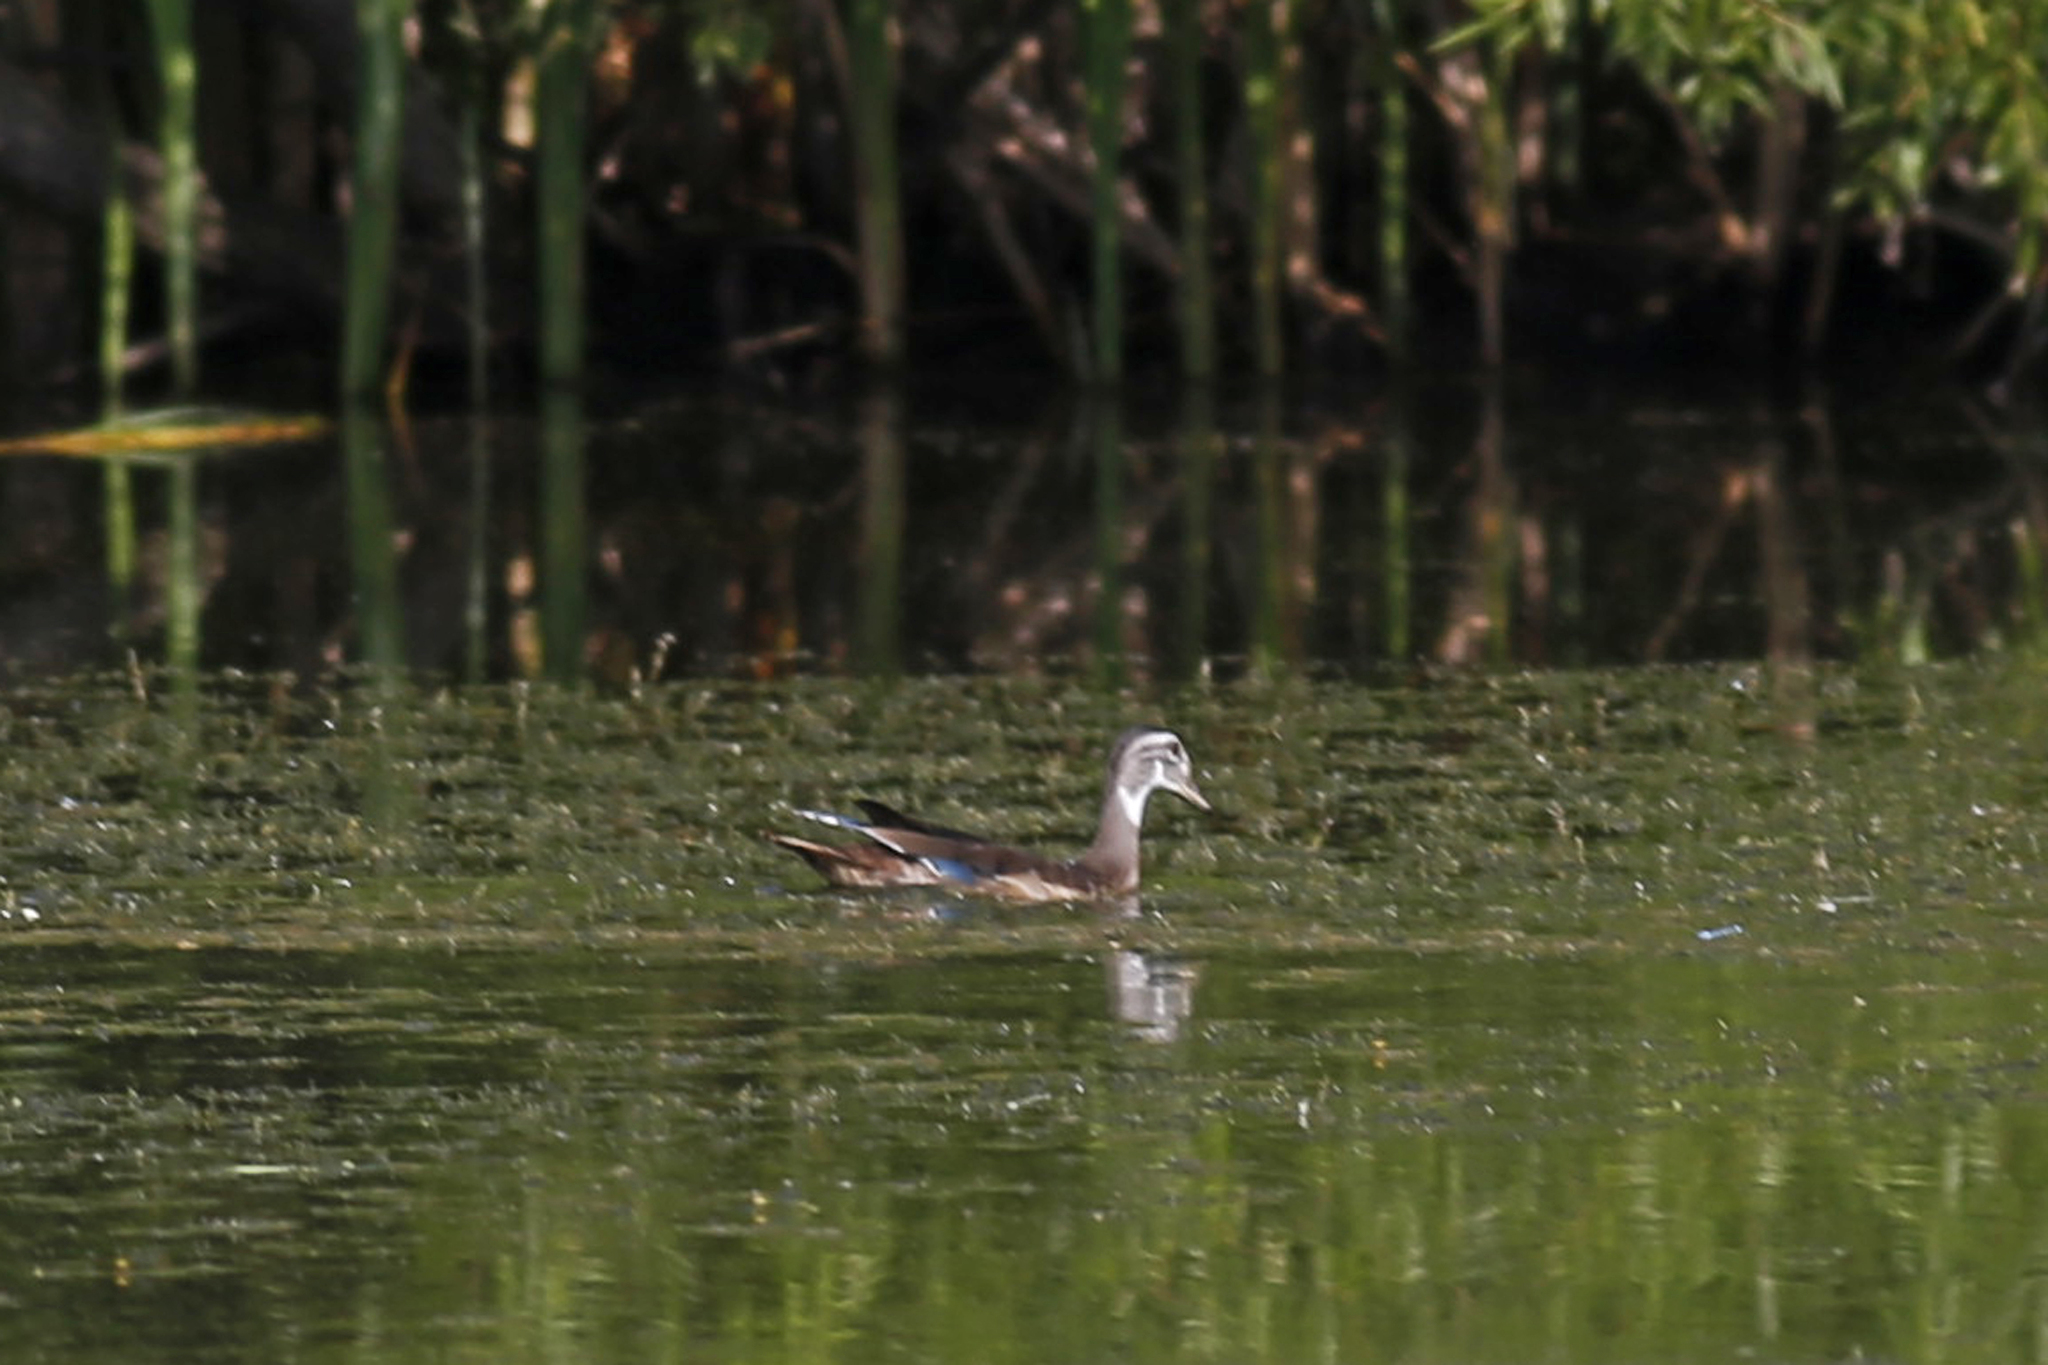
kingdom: Animalia
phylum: Chordata
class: Aves
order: Anseriformes
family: Anatidae
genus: Aix
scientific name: Aix sponsa
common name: Wood duck
